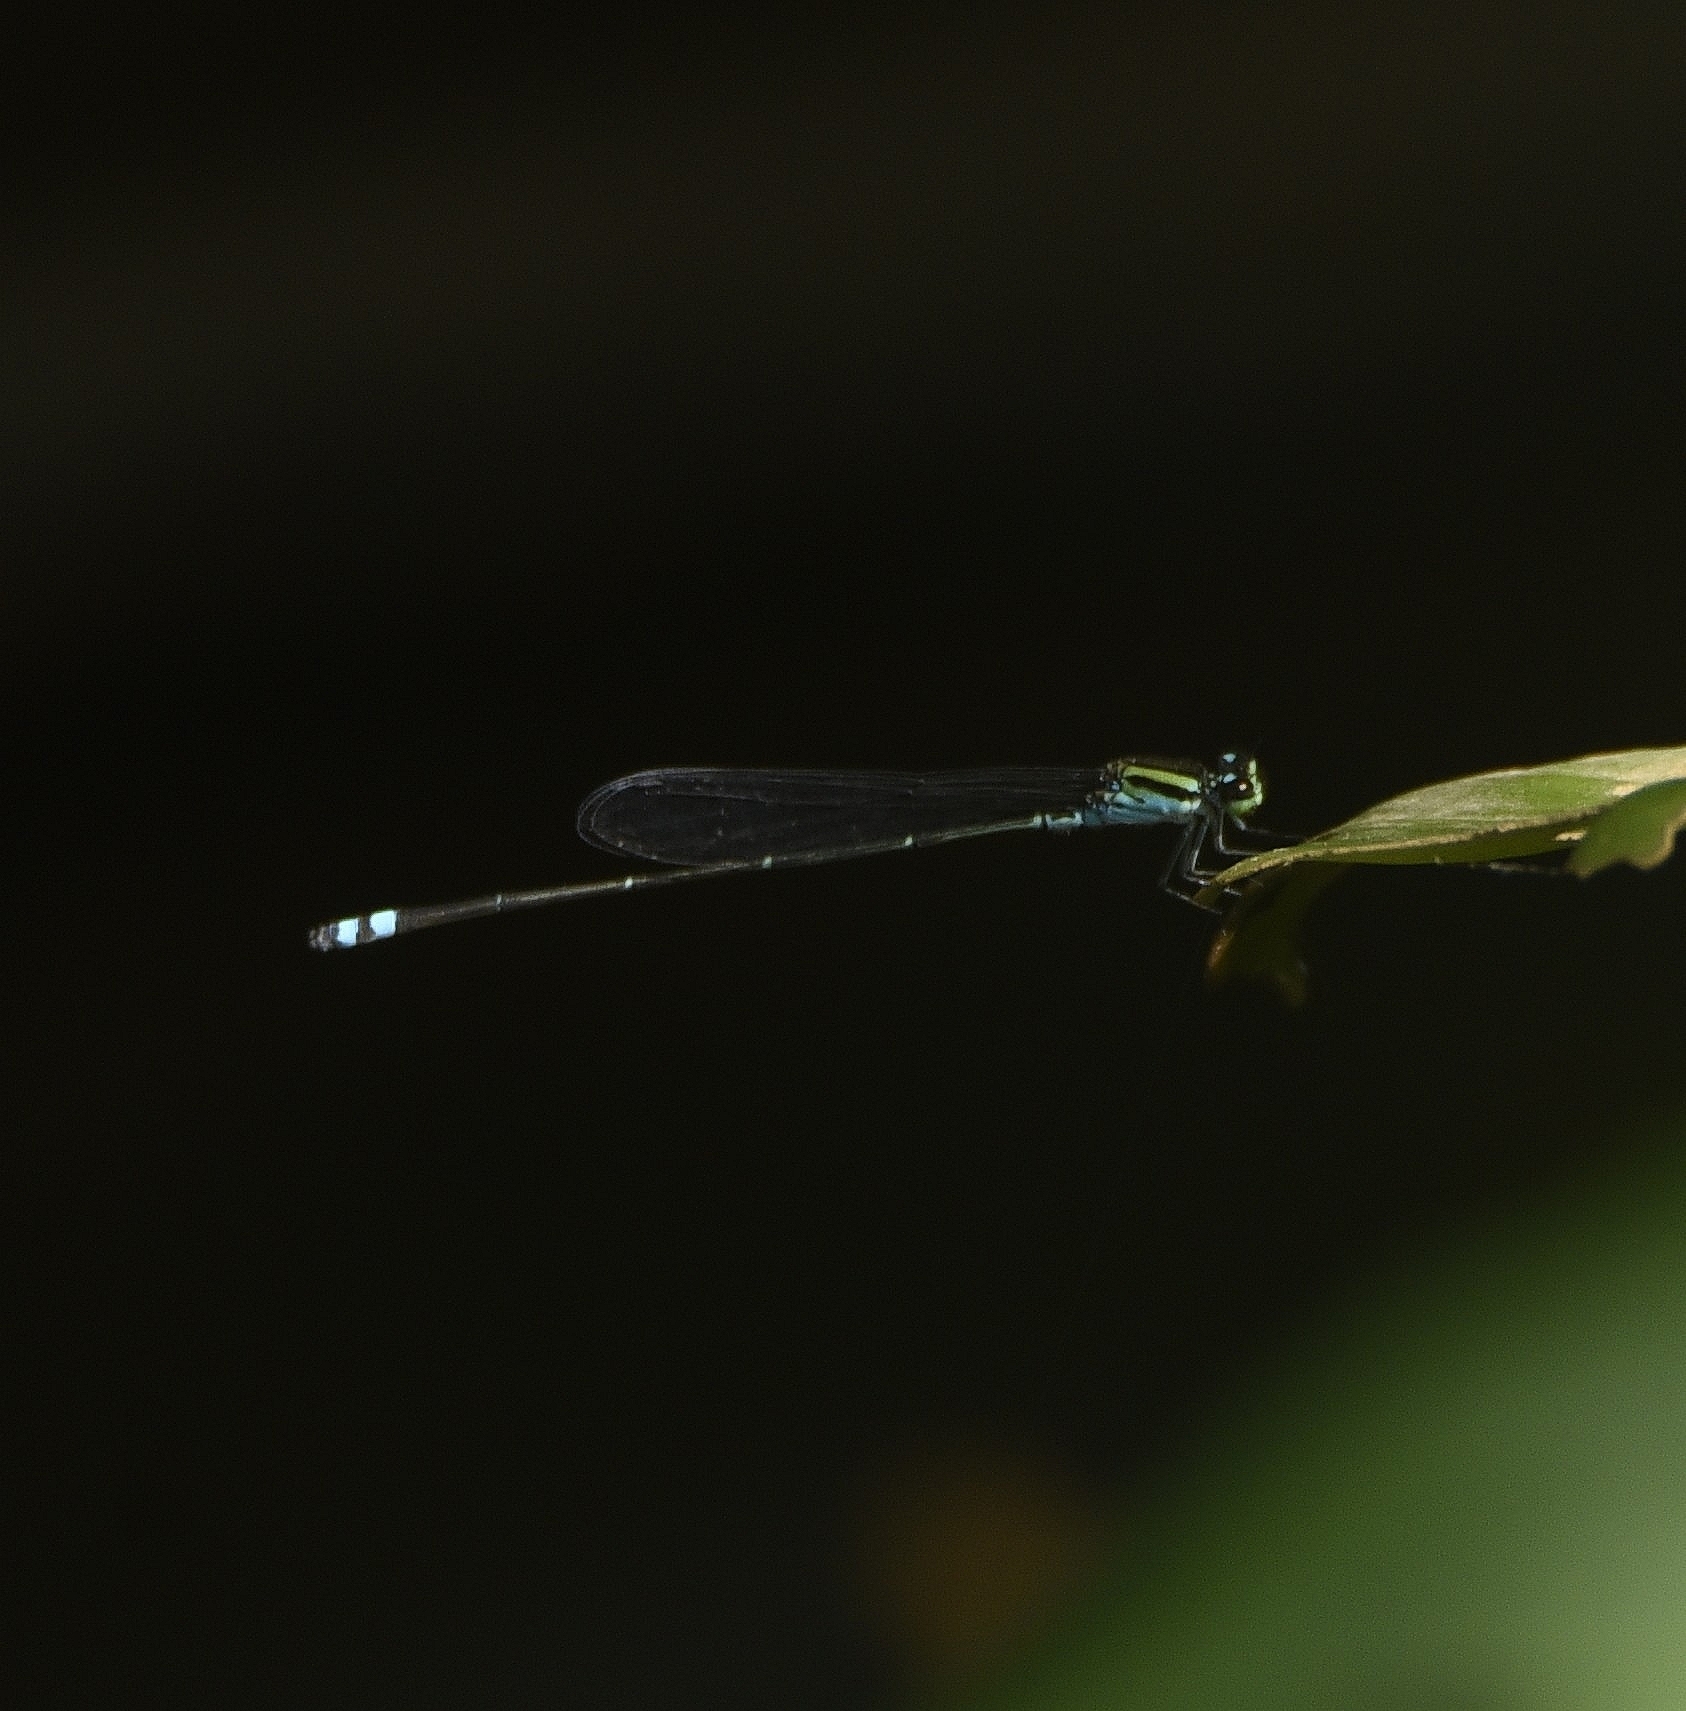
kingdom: Animalia
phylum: Arthropoda
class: Insecta
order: Odonata
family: Coenagrionidae
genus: Pseudagrion
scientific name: Pseudagrion indicum
